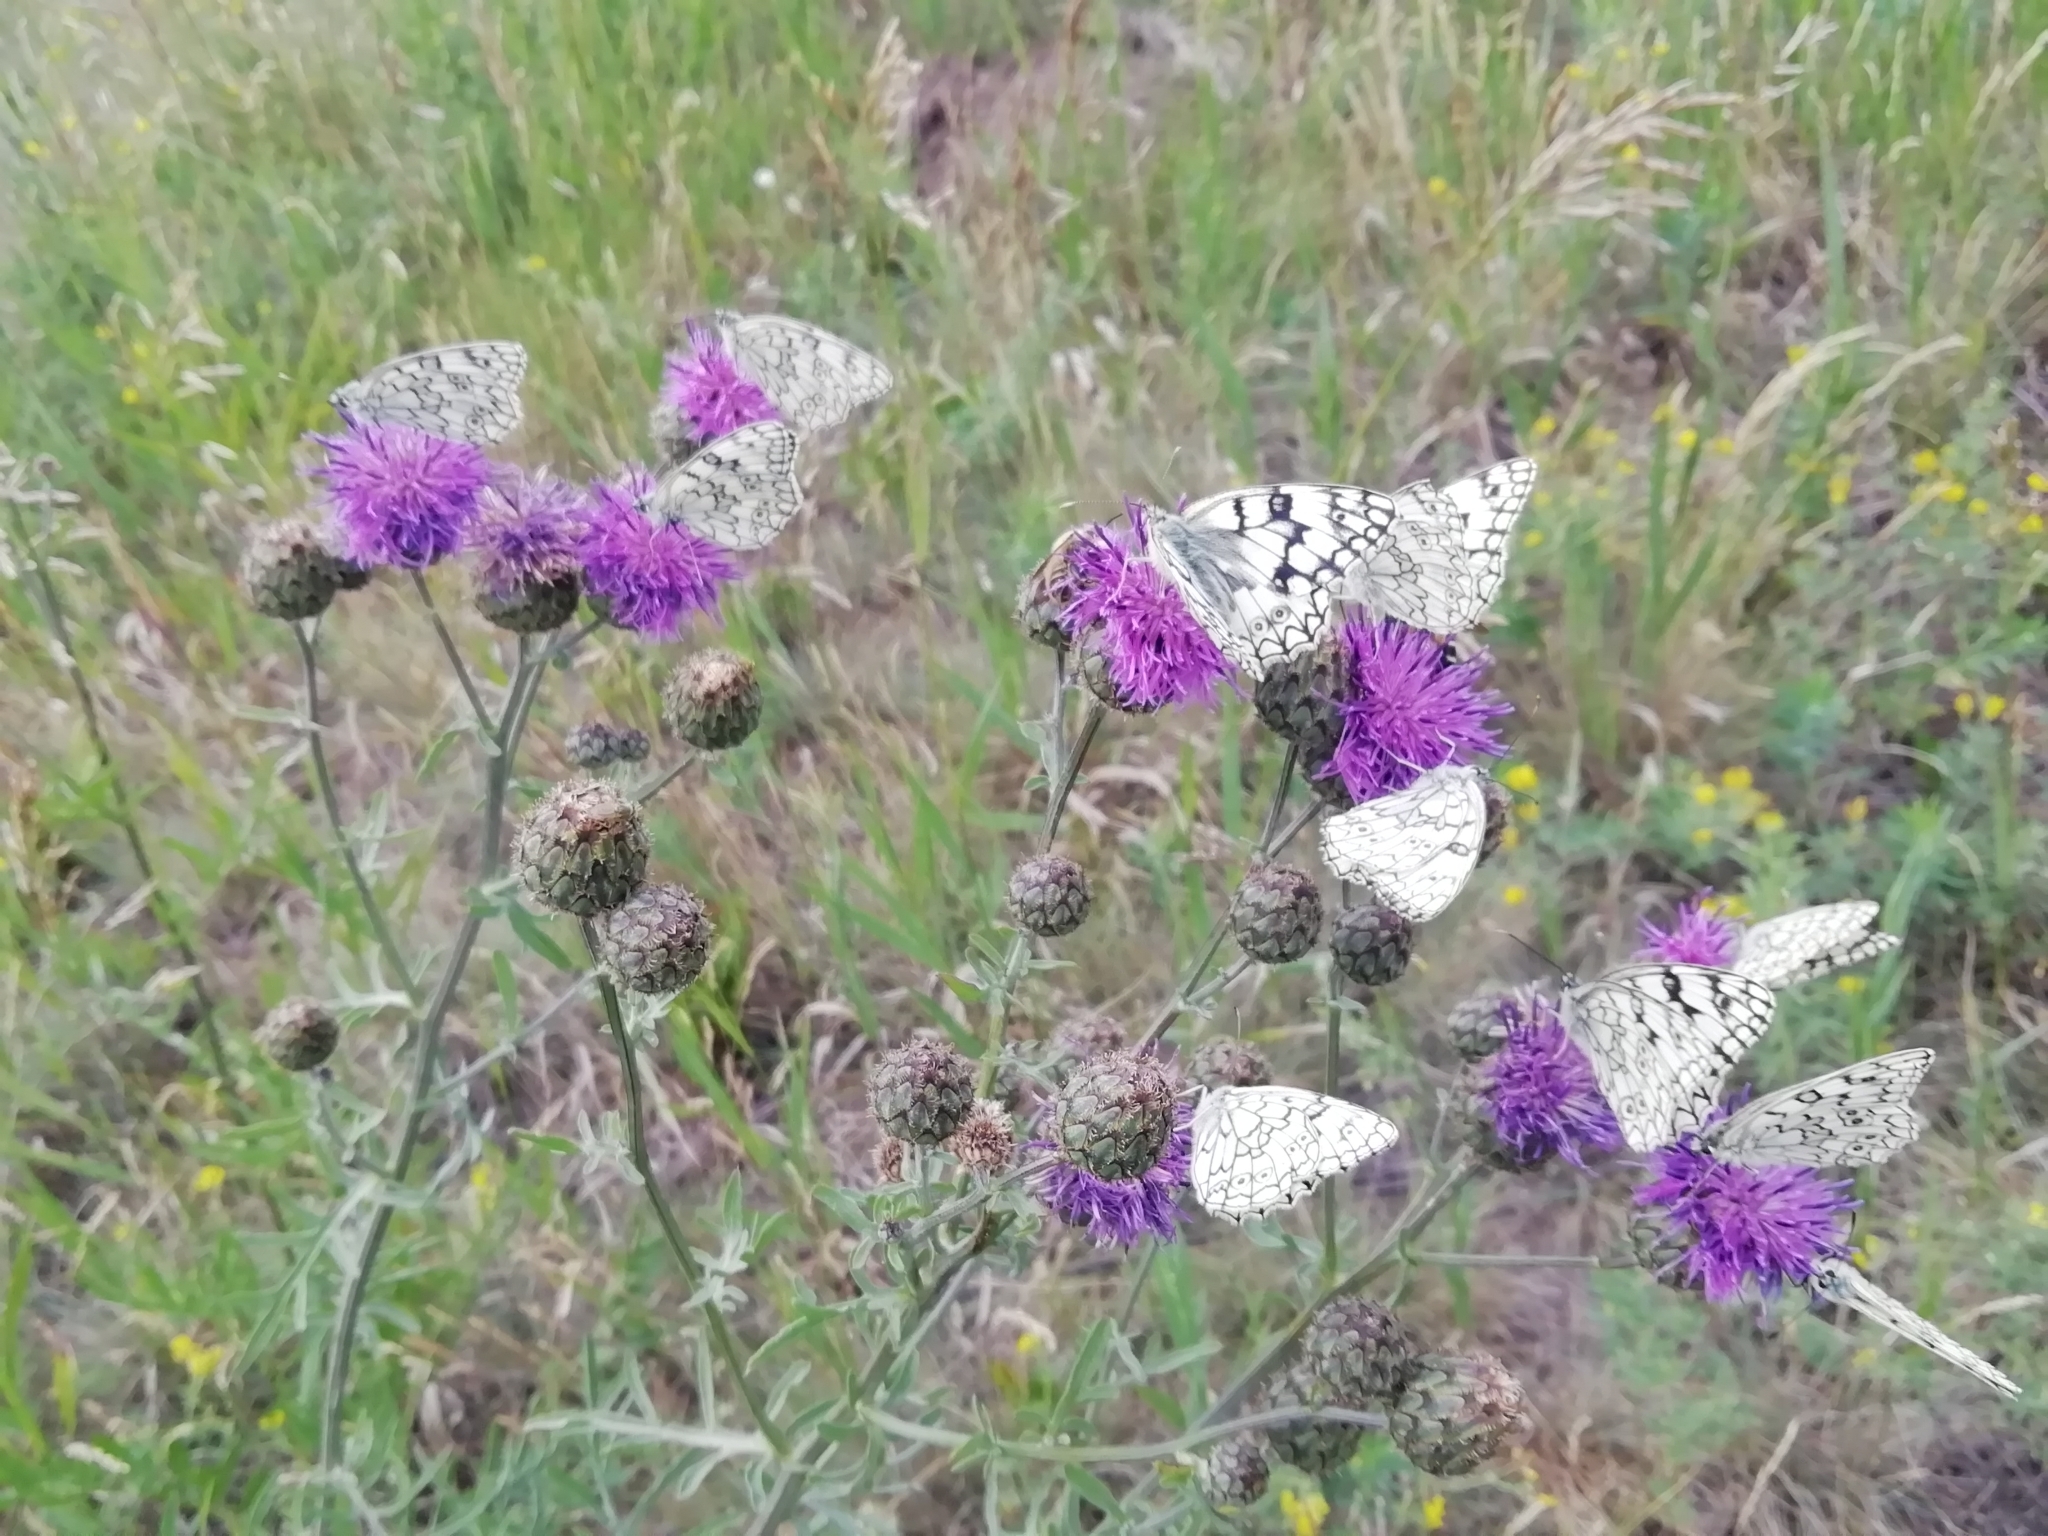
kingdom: Animalia
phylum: Arthropoda
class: Insecta
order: Lepidoptera
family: Nymphalidae
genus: Melanargia
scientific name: Melanargia japygia
